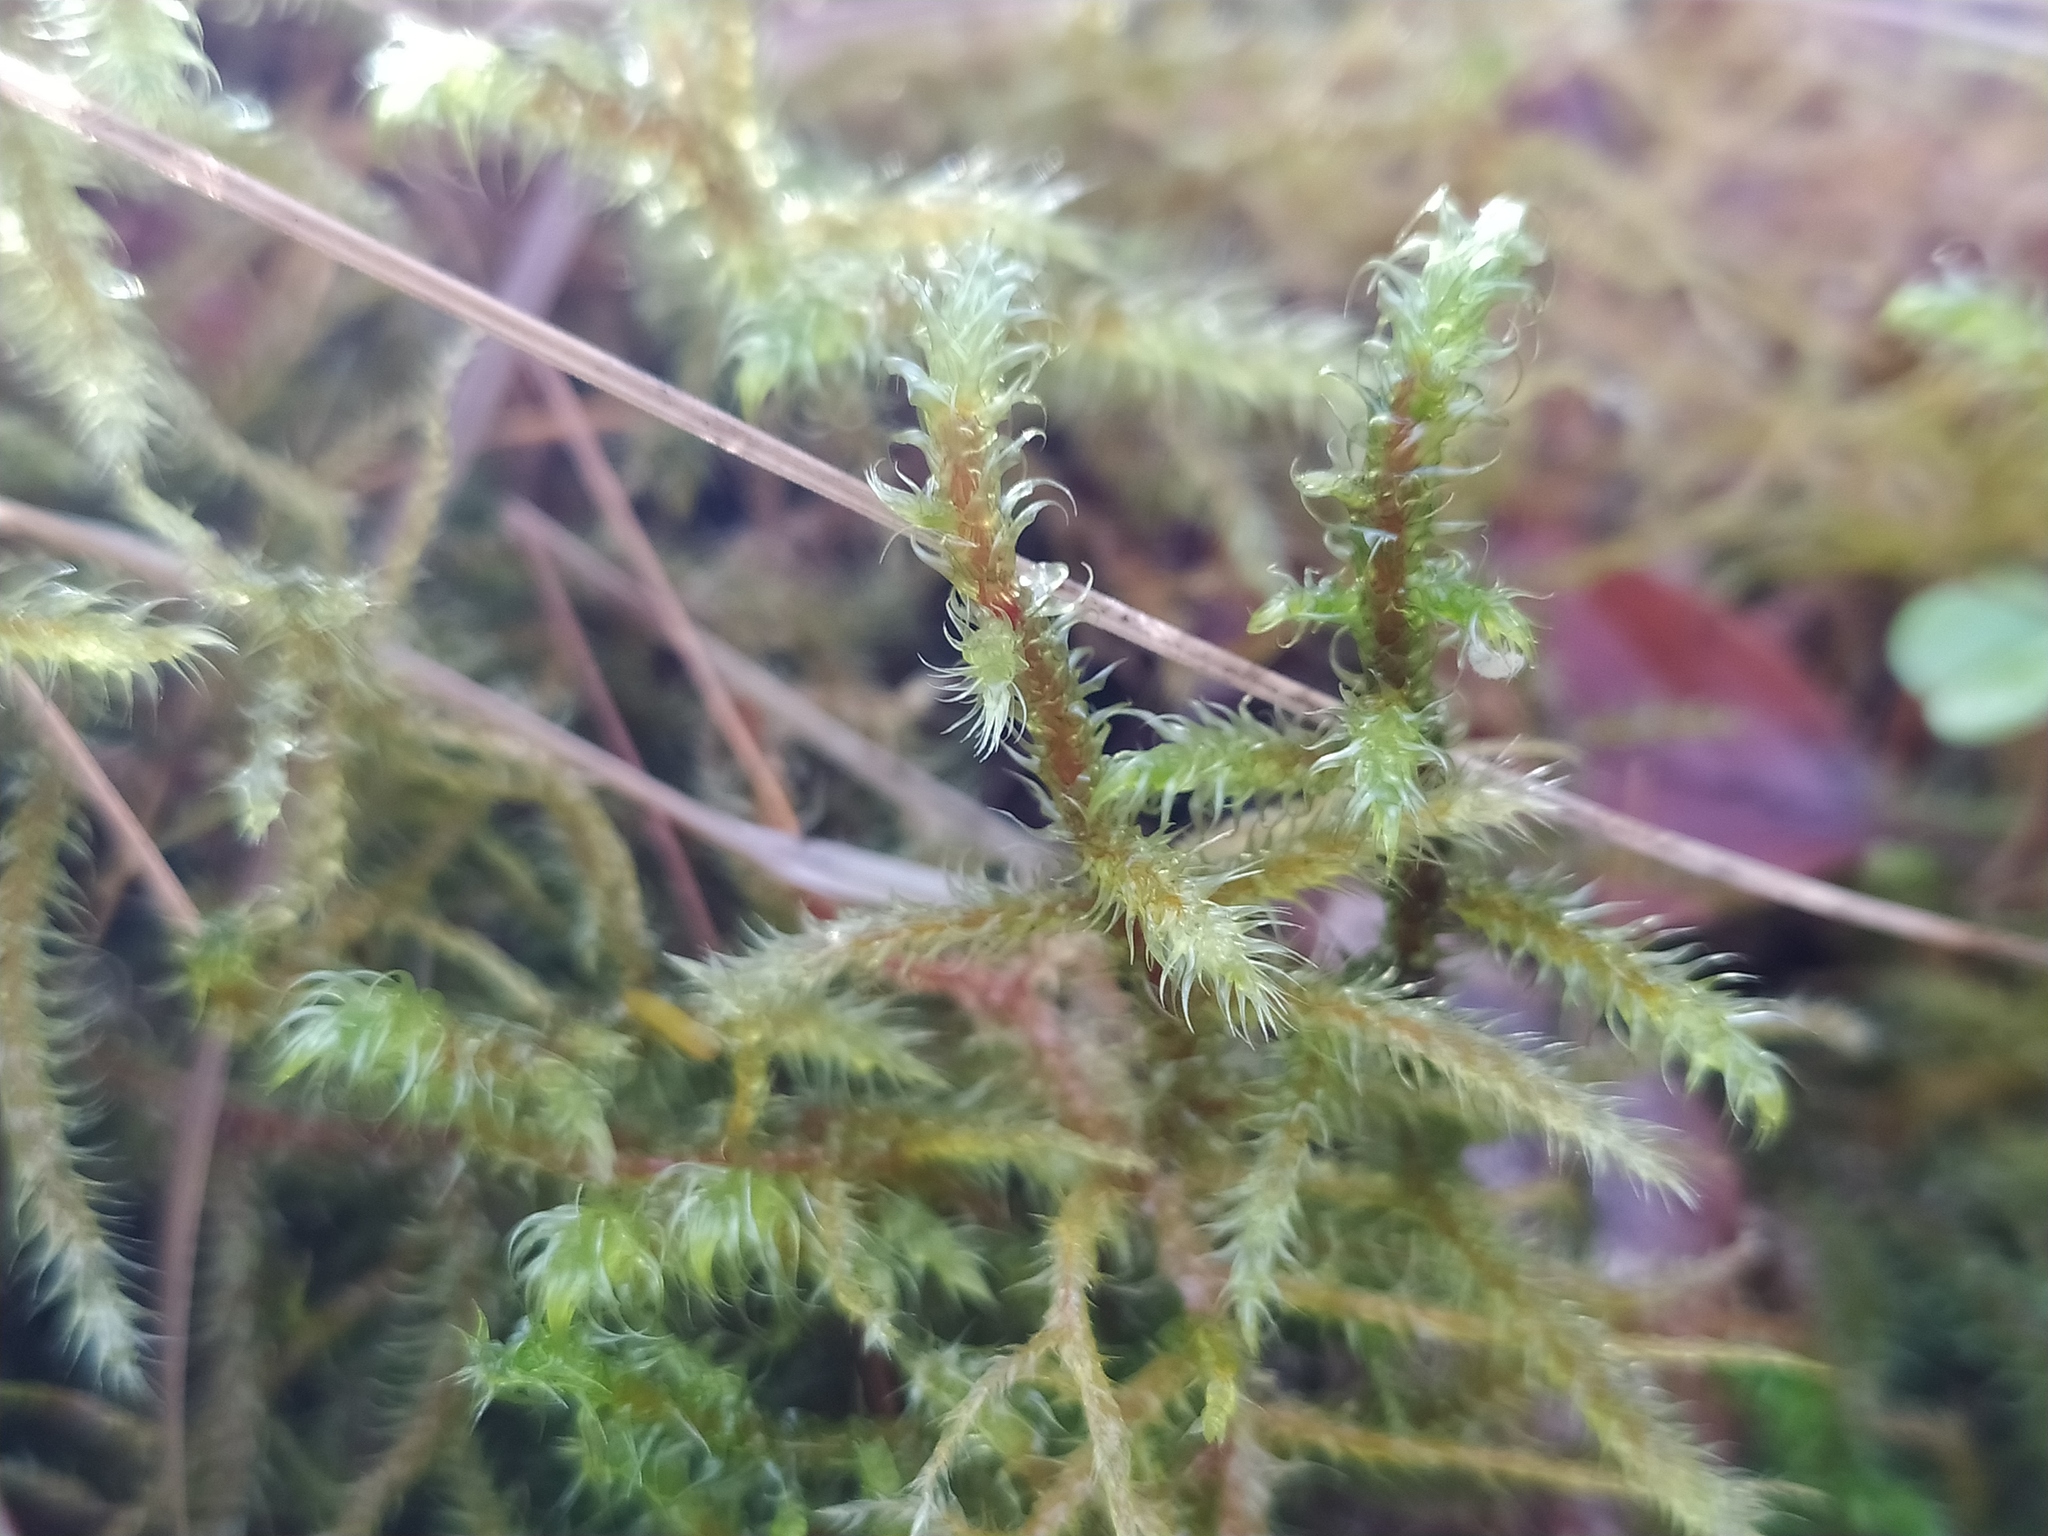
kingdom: Plantae
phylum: Bryophyta
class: Bryopsida
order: Hypnales
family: Hylocomiaceae
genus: Rhytidiadelphus
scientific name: Rhytidiadelphus loreus
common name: Lanky moss
